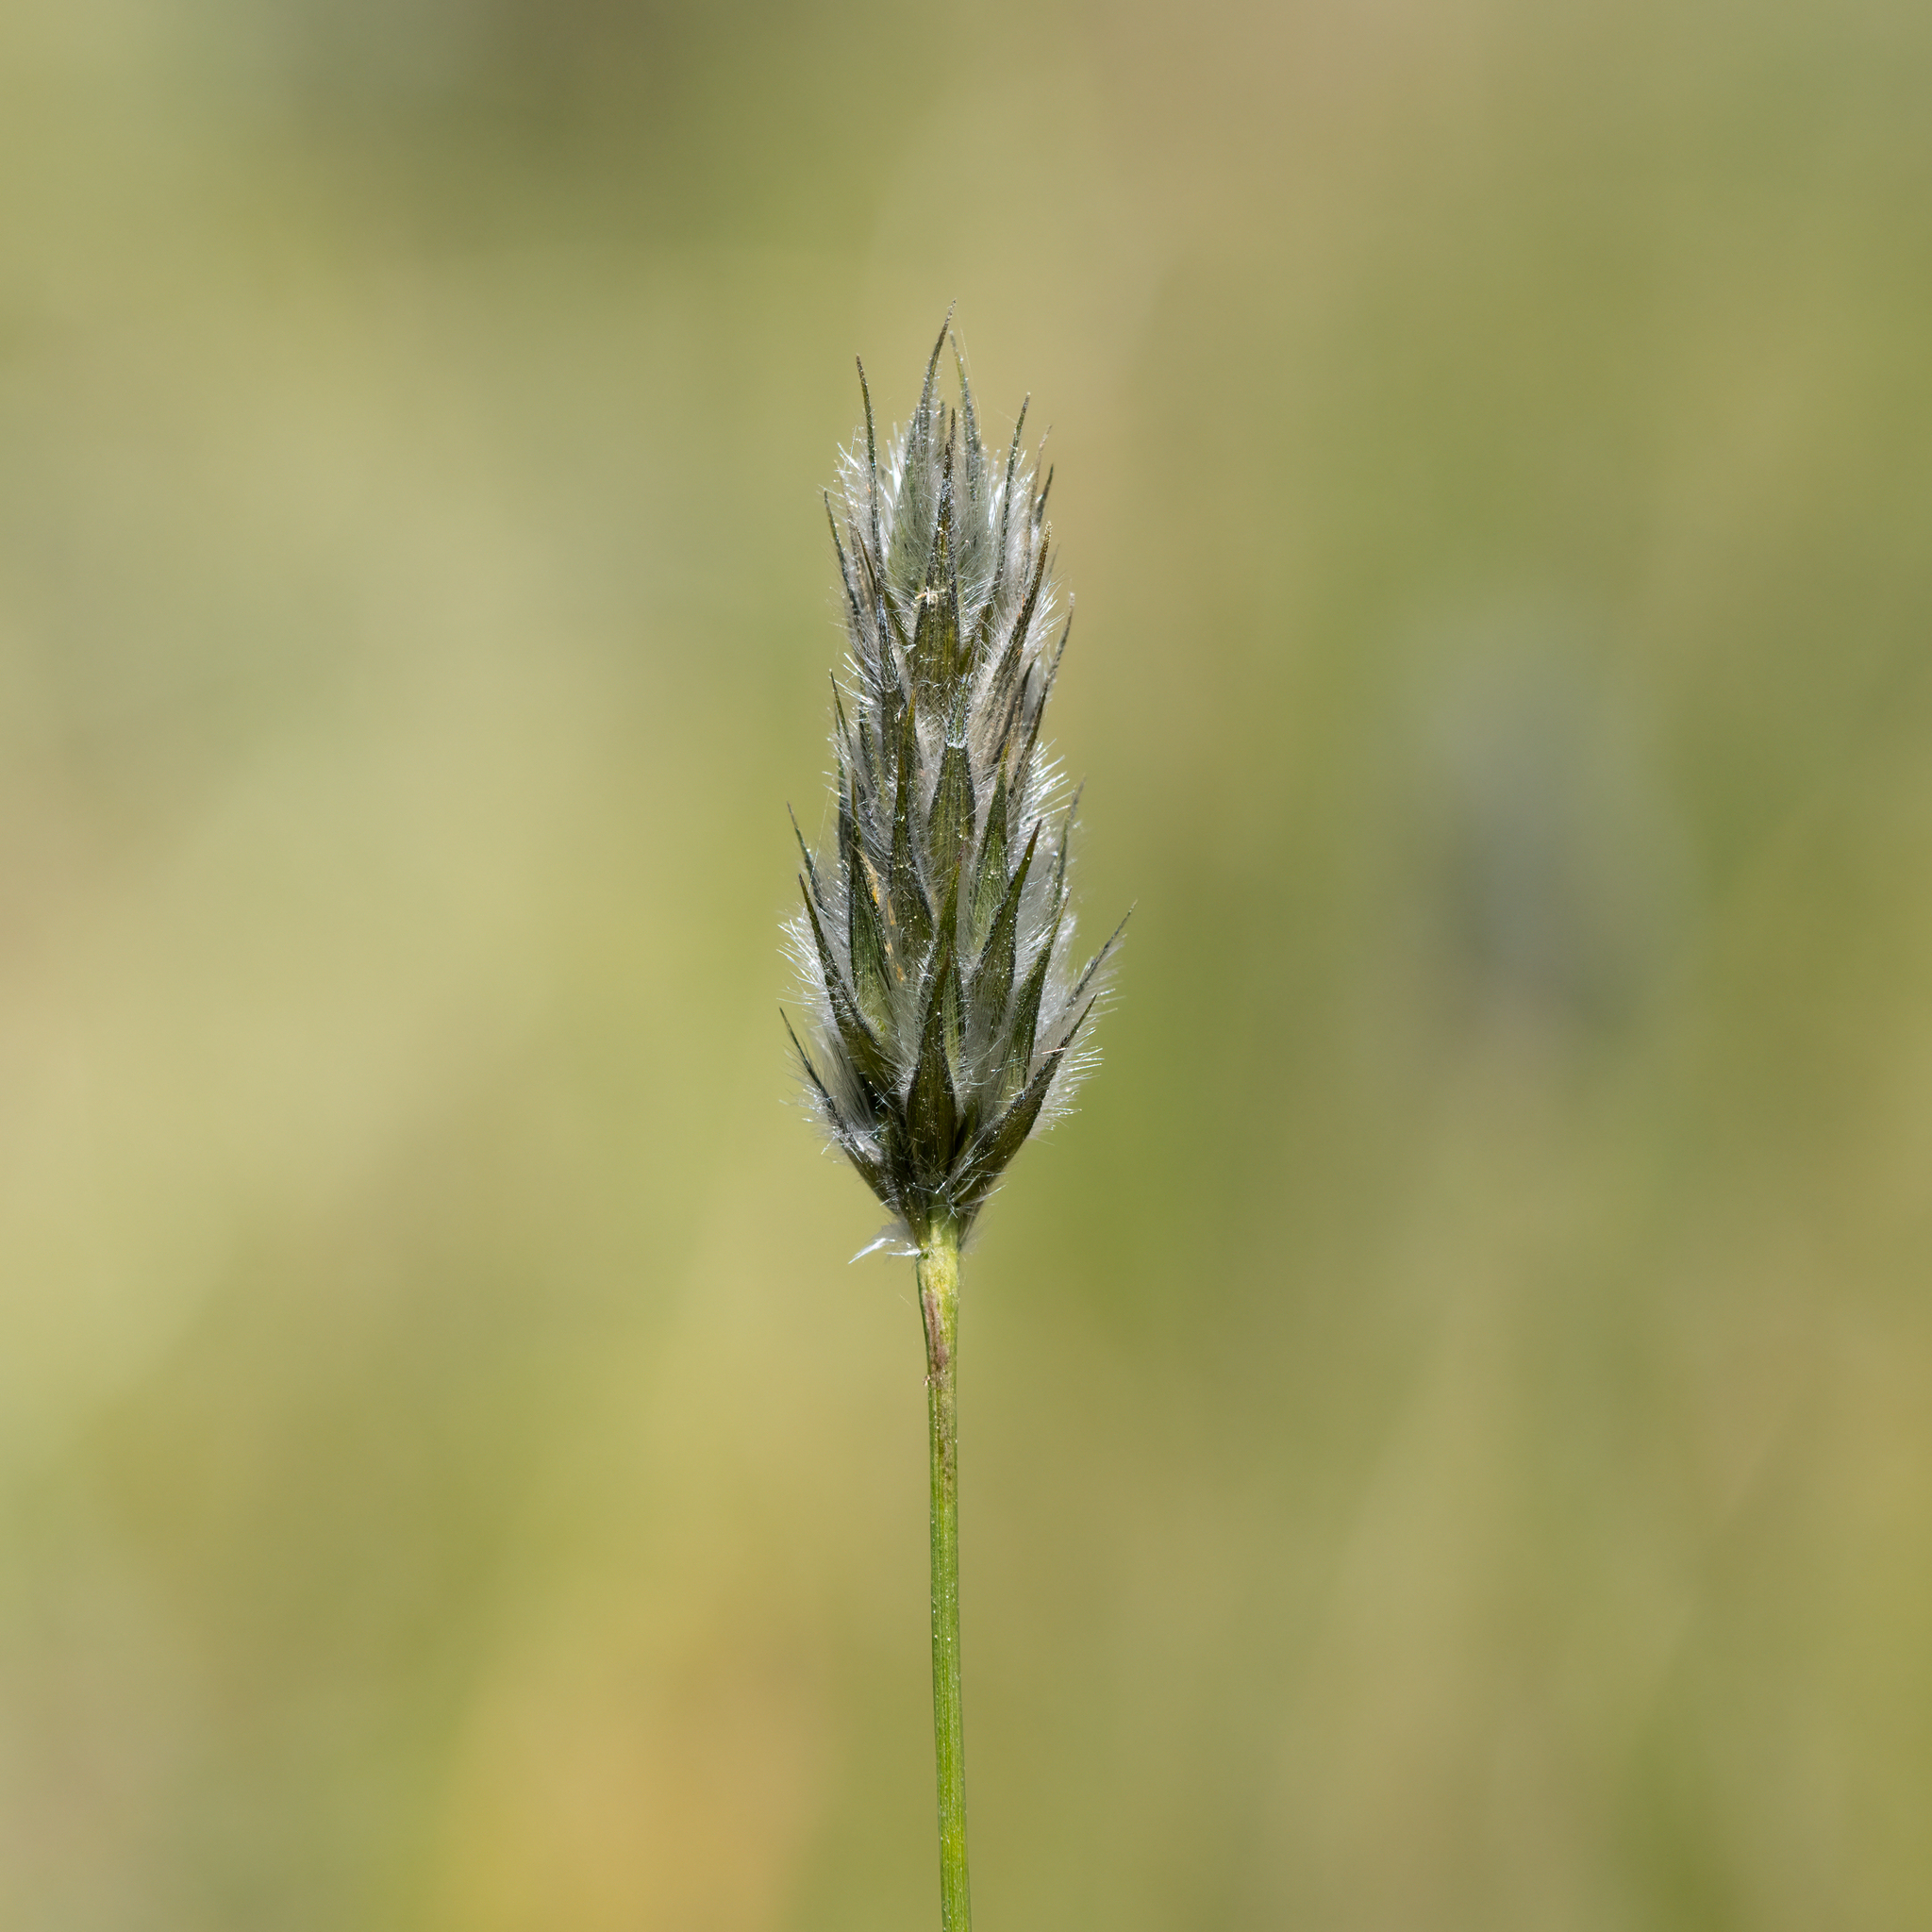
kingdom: Plantae
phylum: Tracheophyta
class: Liliopsida
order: Poales
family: Poaceae
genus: Neurachne
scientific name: Neurachne alopecuroidea
